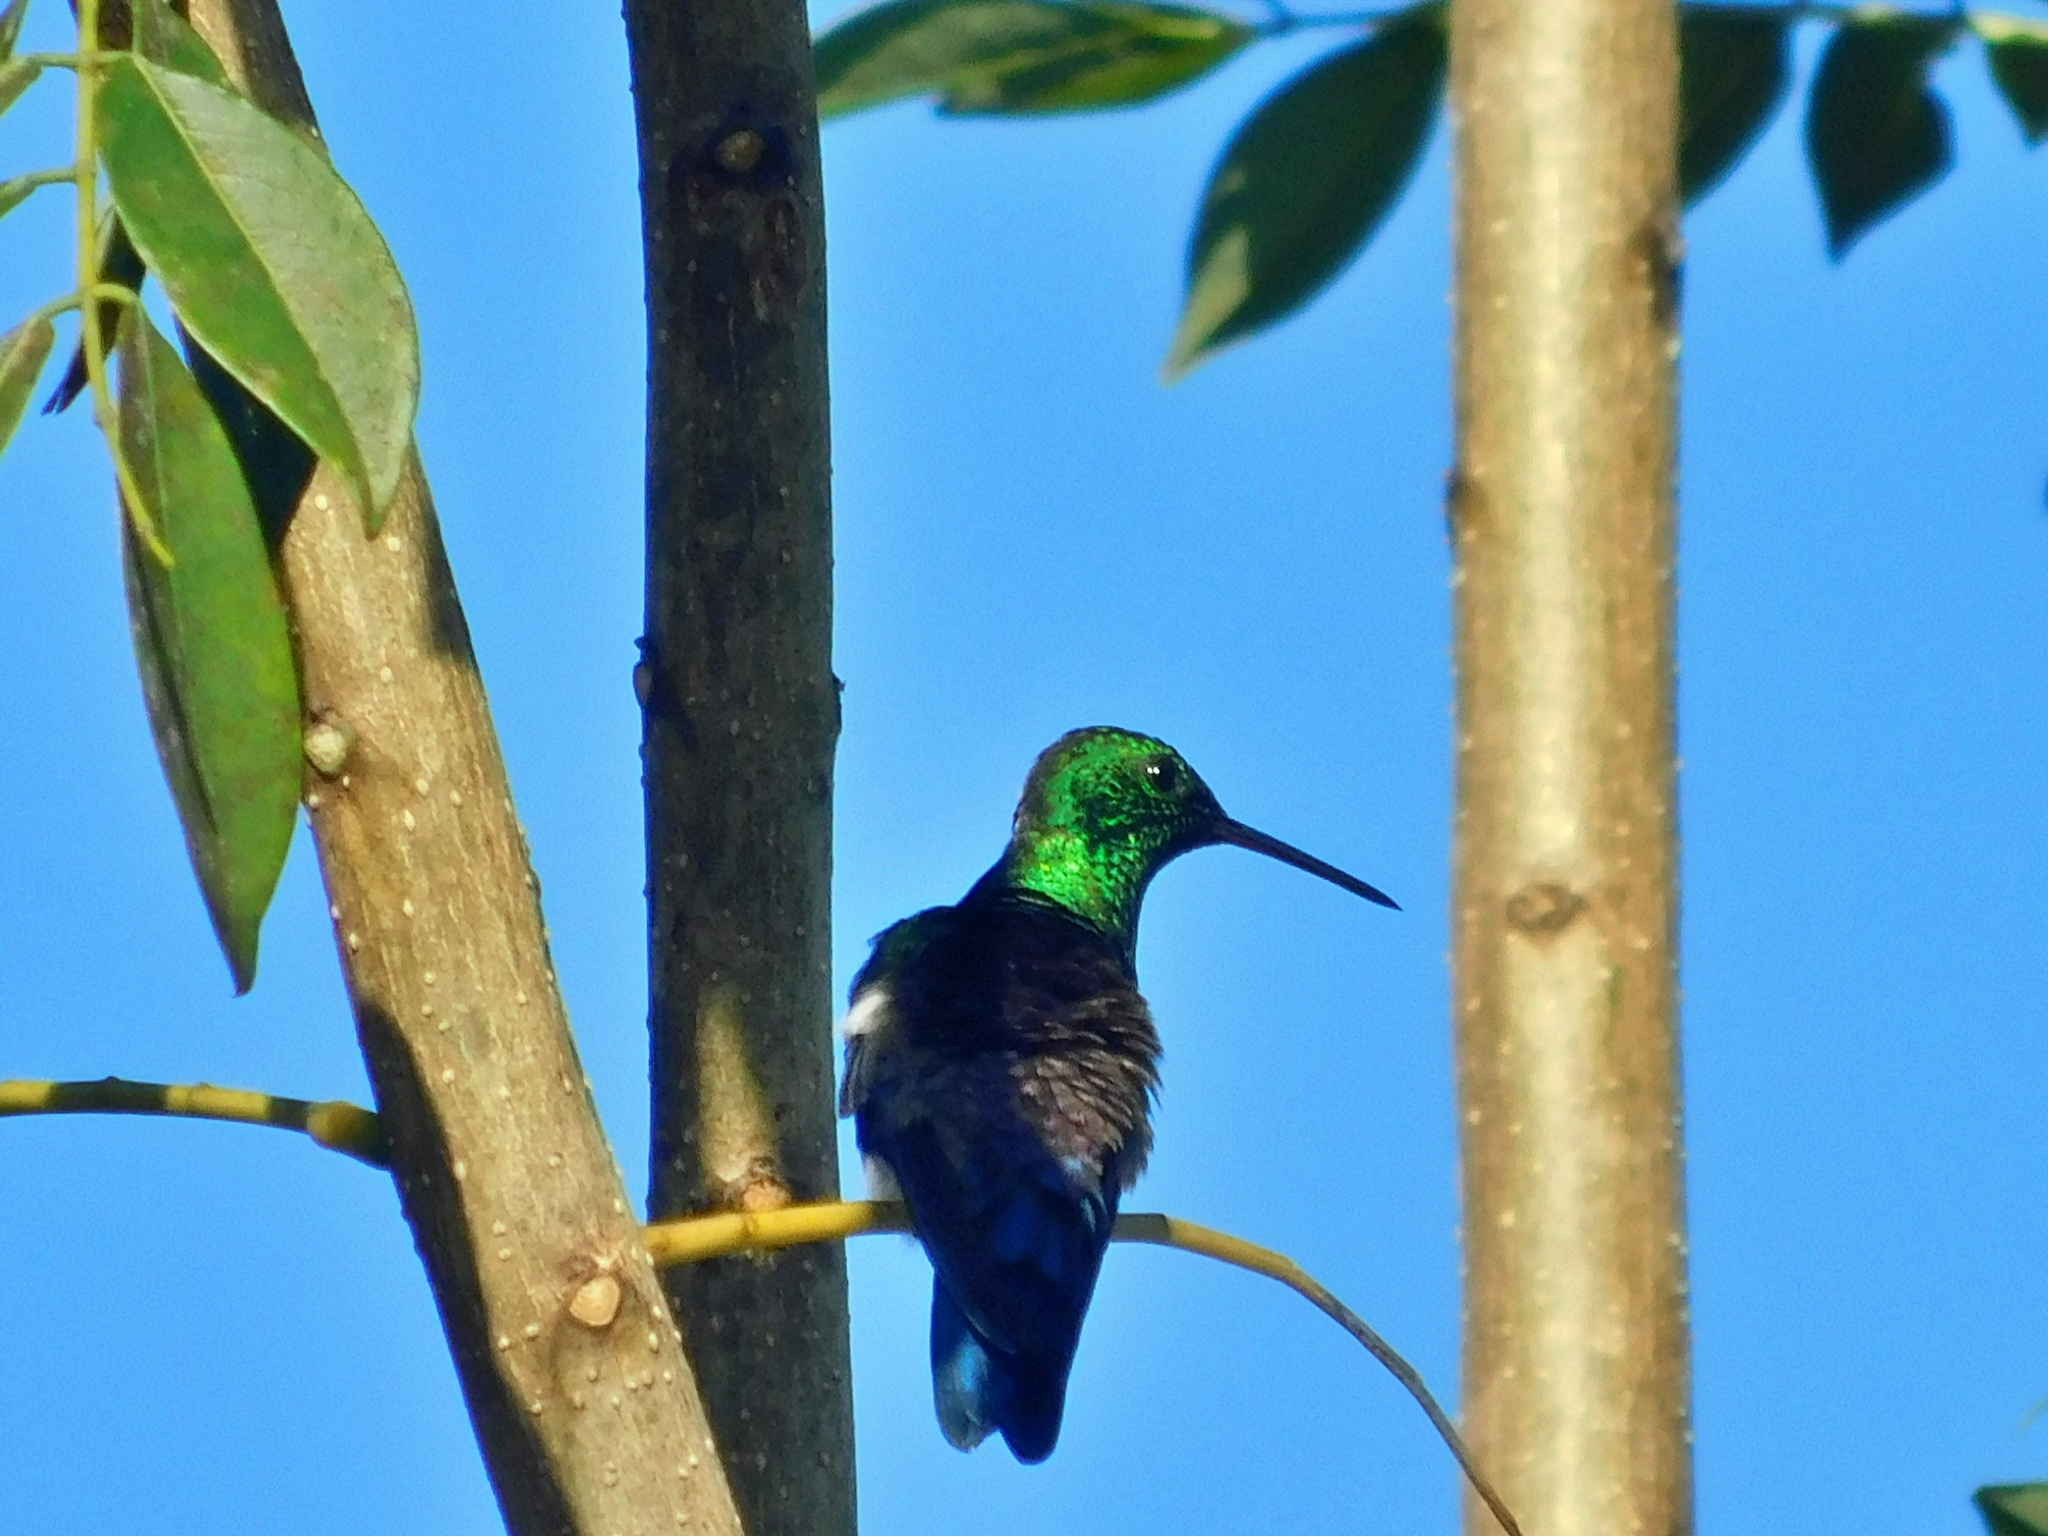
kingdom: Animalia
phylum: Chordata
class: Aves
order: Apodiformes
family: Trochilidae
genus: Saucerottia
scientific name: Saucerottia hoffmanni
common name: Blue-vented hummingbird
